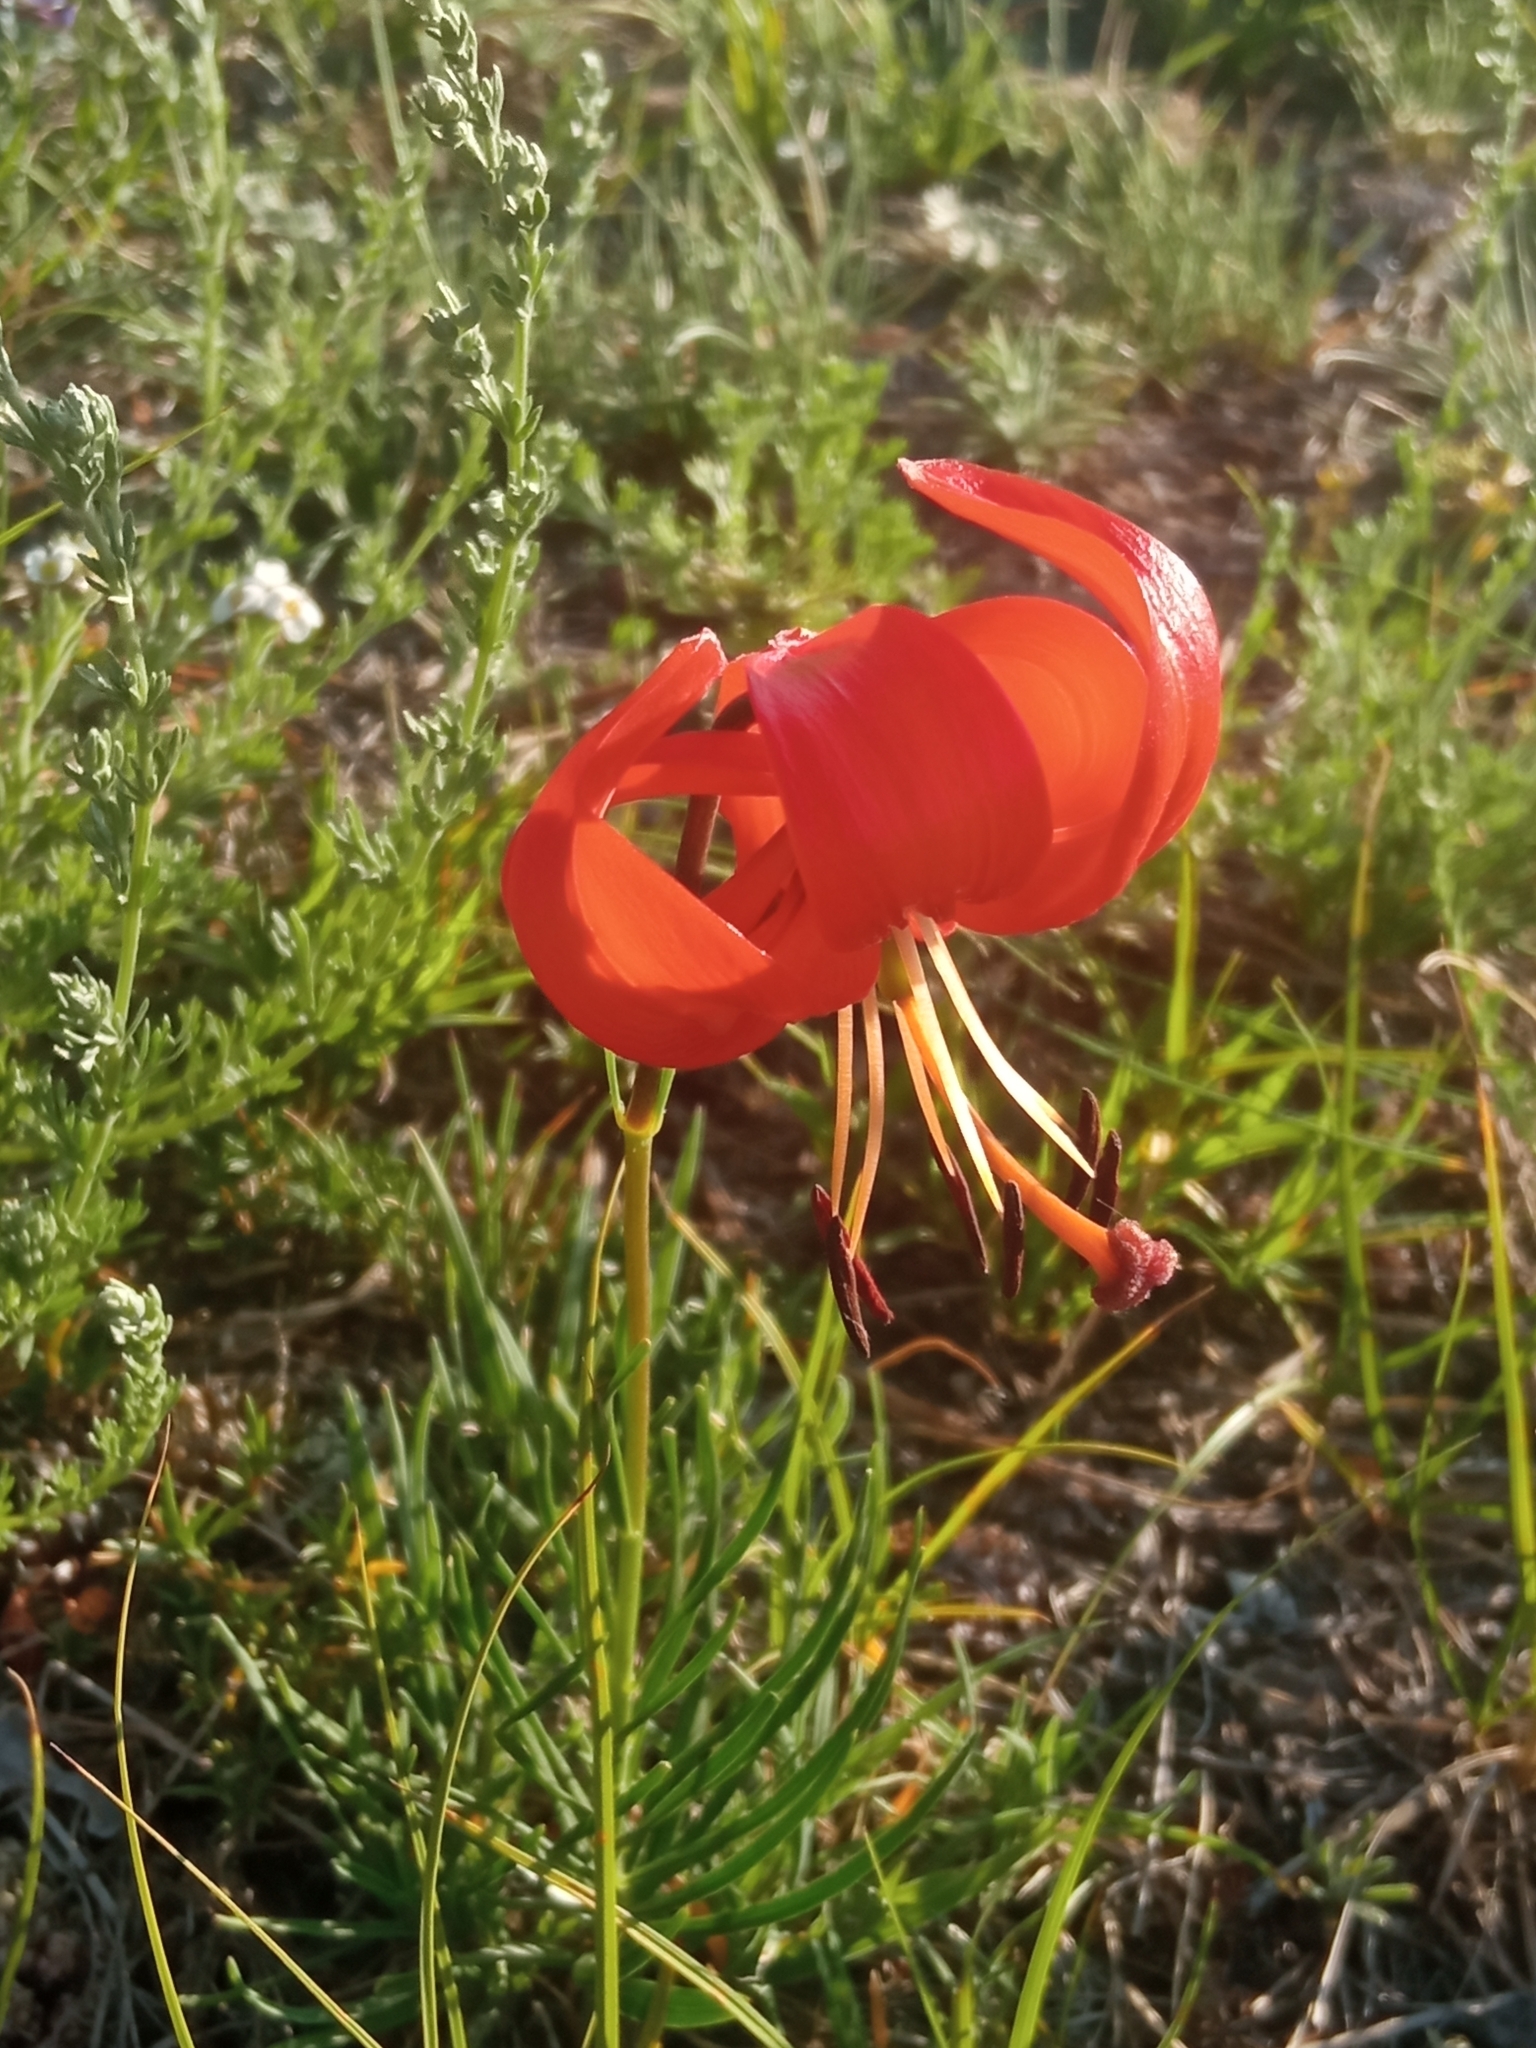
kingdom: Plantae
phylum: Tracheophyta
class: Liliopsida
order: Liliales
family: Liliaceae
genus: Lilium
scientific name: Lilium pumilum
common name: Coral lily
